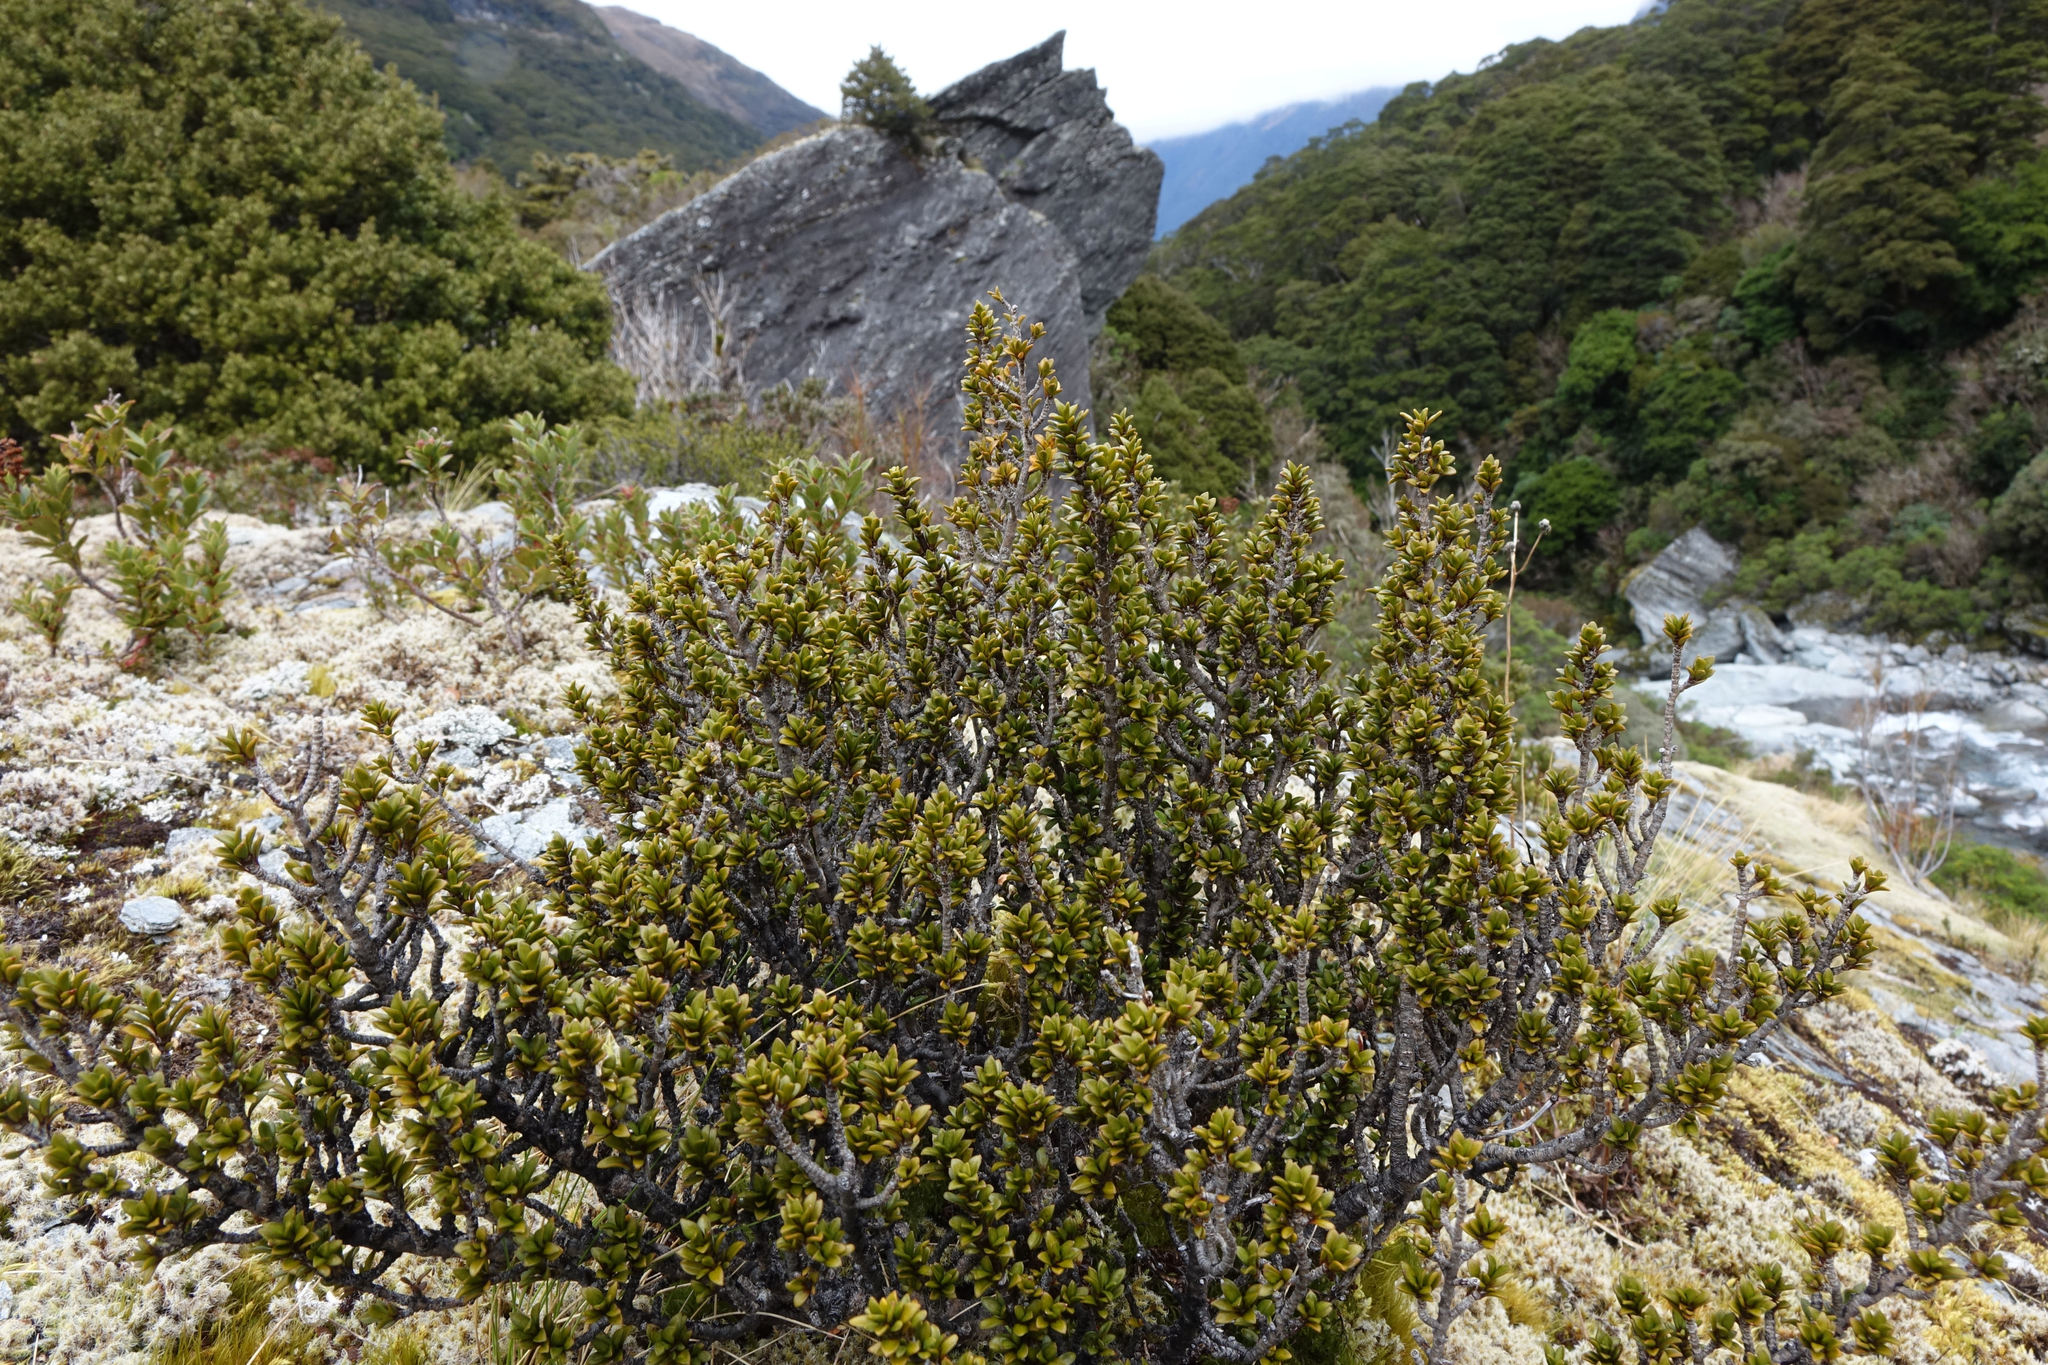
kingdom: Plantae
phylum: Tracheophyta
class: Magnoliopsida
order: Gentianales
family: Rubiaceae
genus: Coprosma
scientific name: Coprosma fowerakeri
